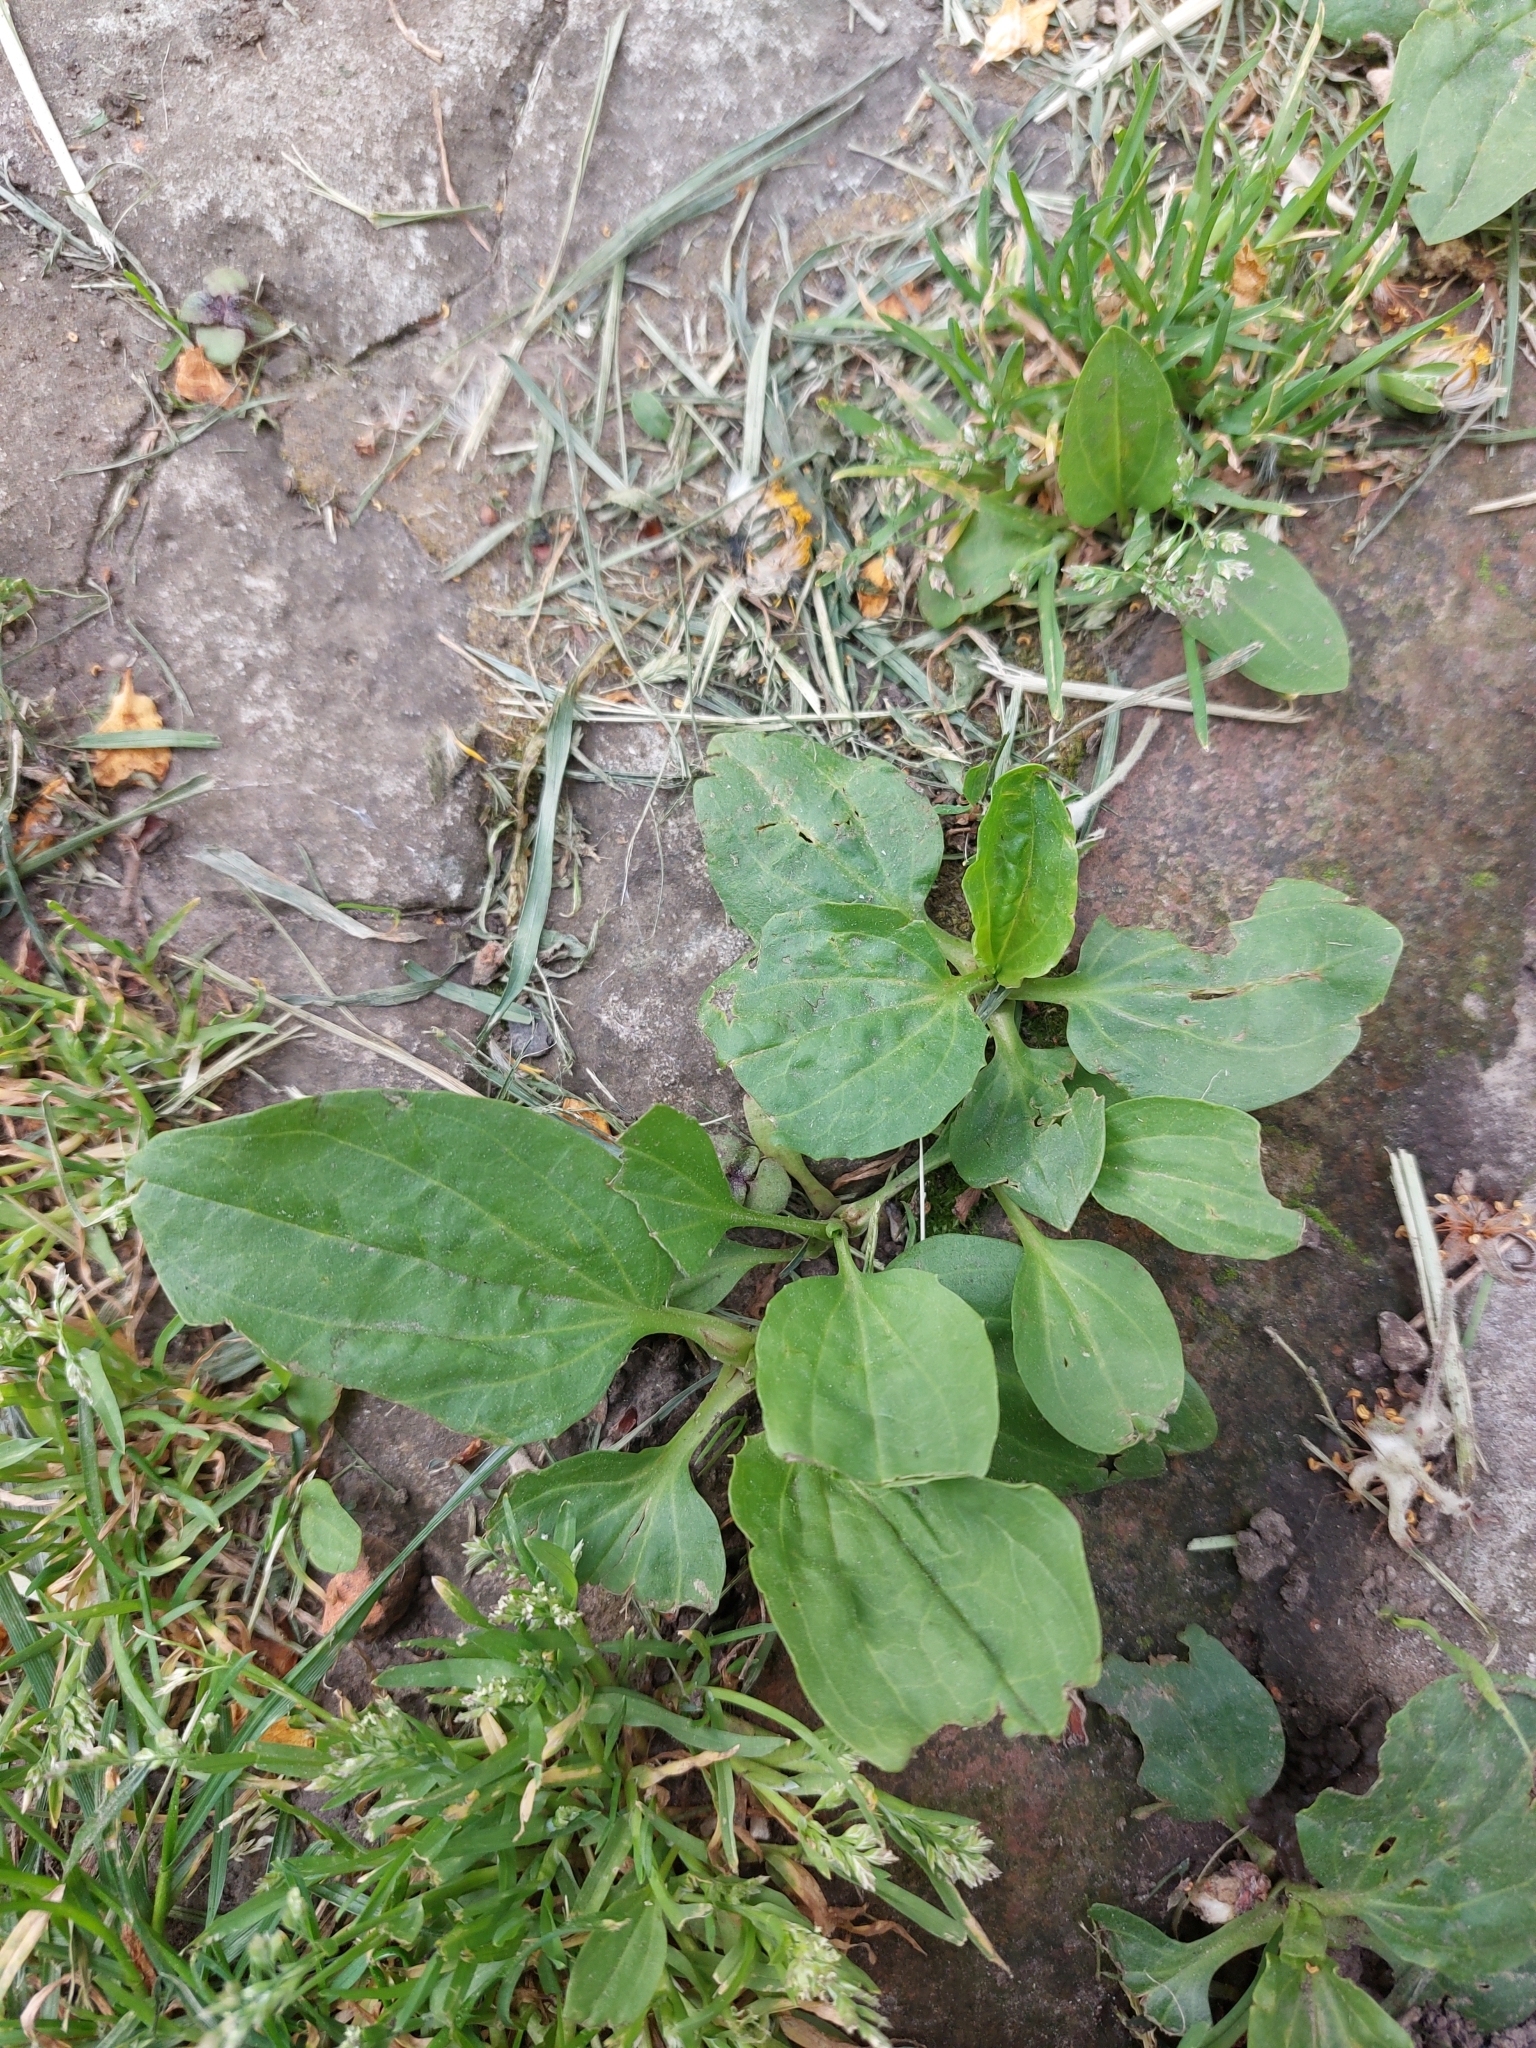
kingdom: Plantae
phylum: Tracheophyta
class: Magnoliopsida
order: Lamiales
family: Plantaginaceae
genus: Plantago
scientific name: Plantago major
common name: Common plantain
